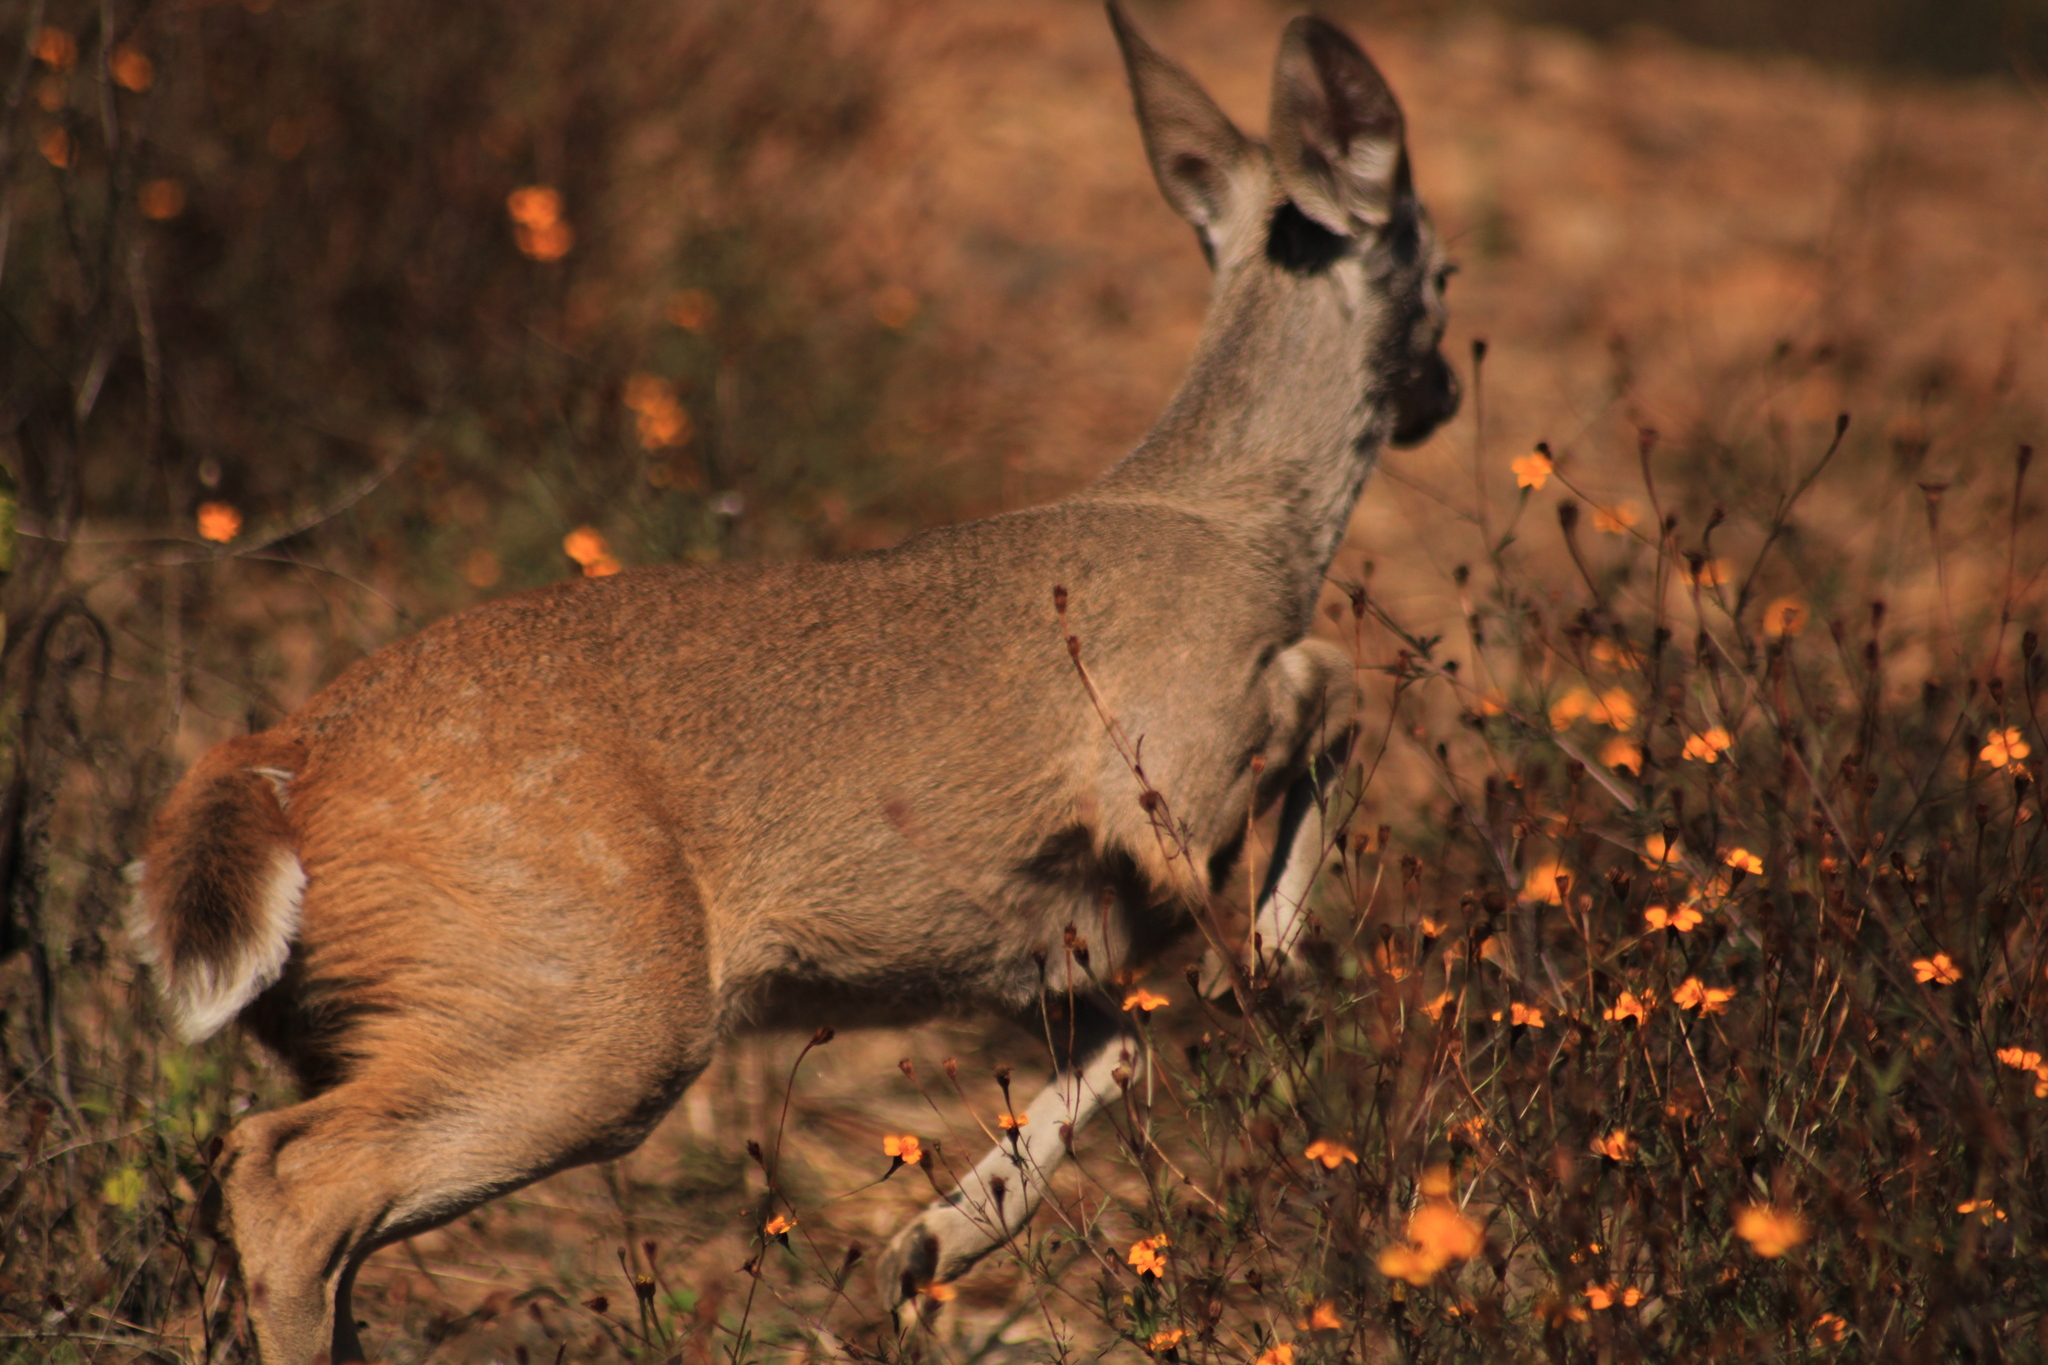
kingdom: Animalia
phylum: Chordata
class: Mammalia
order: Artiodactyla
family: Cervidae
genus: Odocoileus
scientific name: Odocoileus virginianus
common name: White-tailed deer
